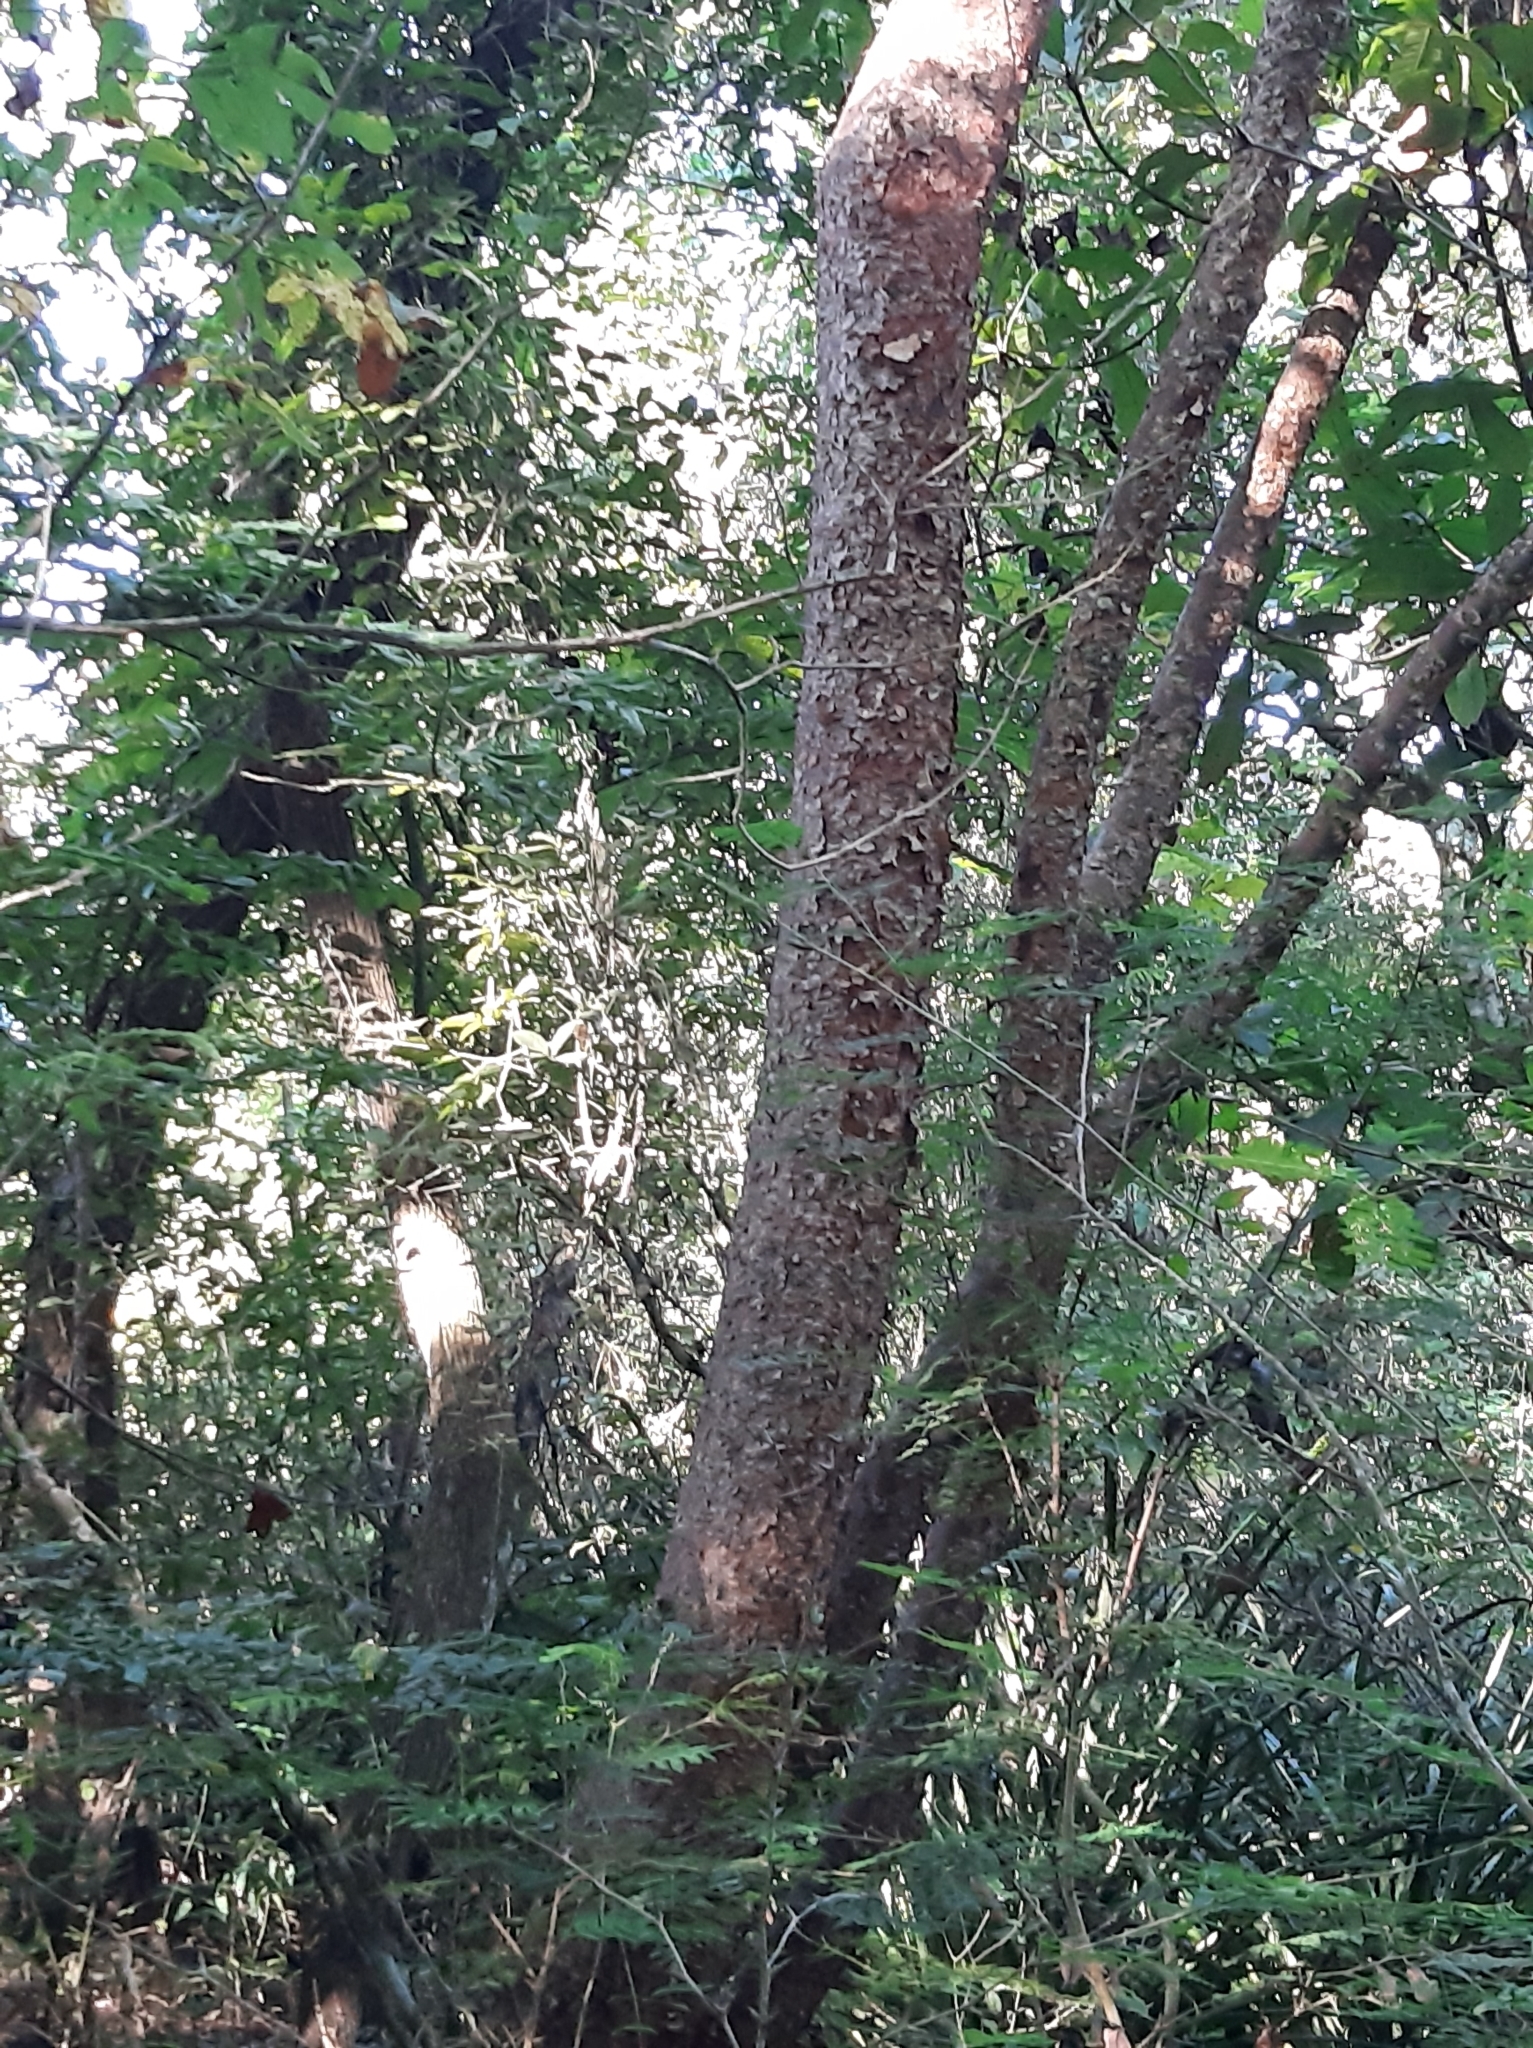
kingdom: Plantae
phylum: Tracheophyta
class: Magnoliopsida
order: Sapindales
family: Burseraceae
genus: Bursera
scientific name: Bursera simaruba
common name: Turpentine tree
